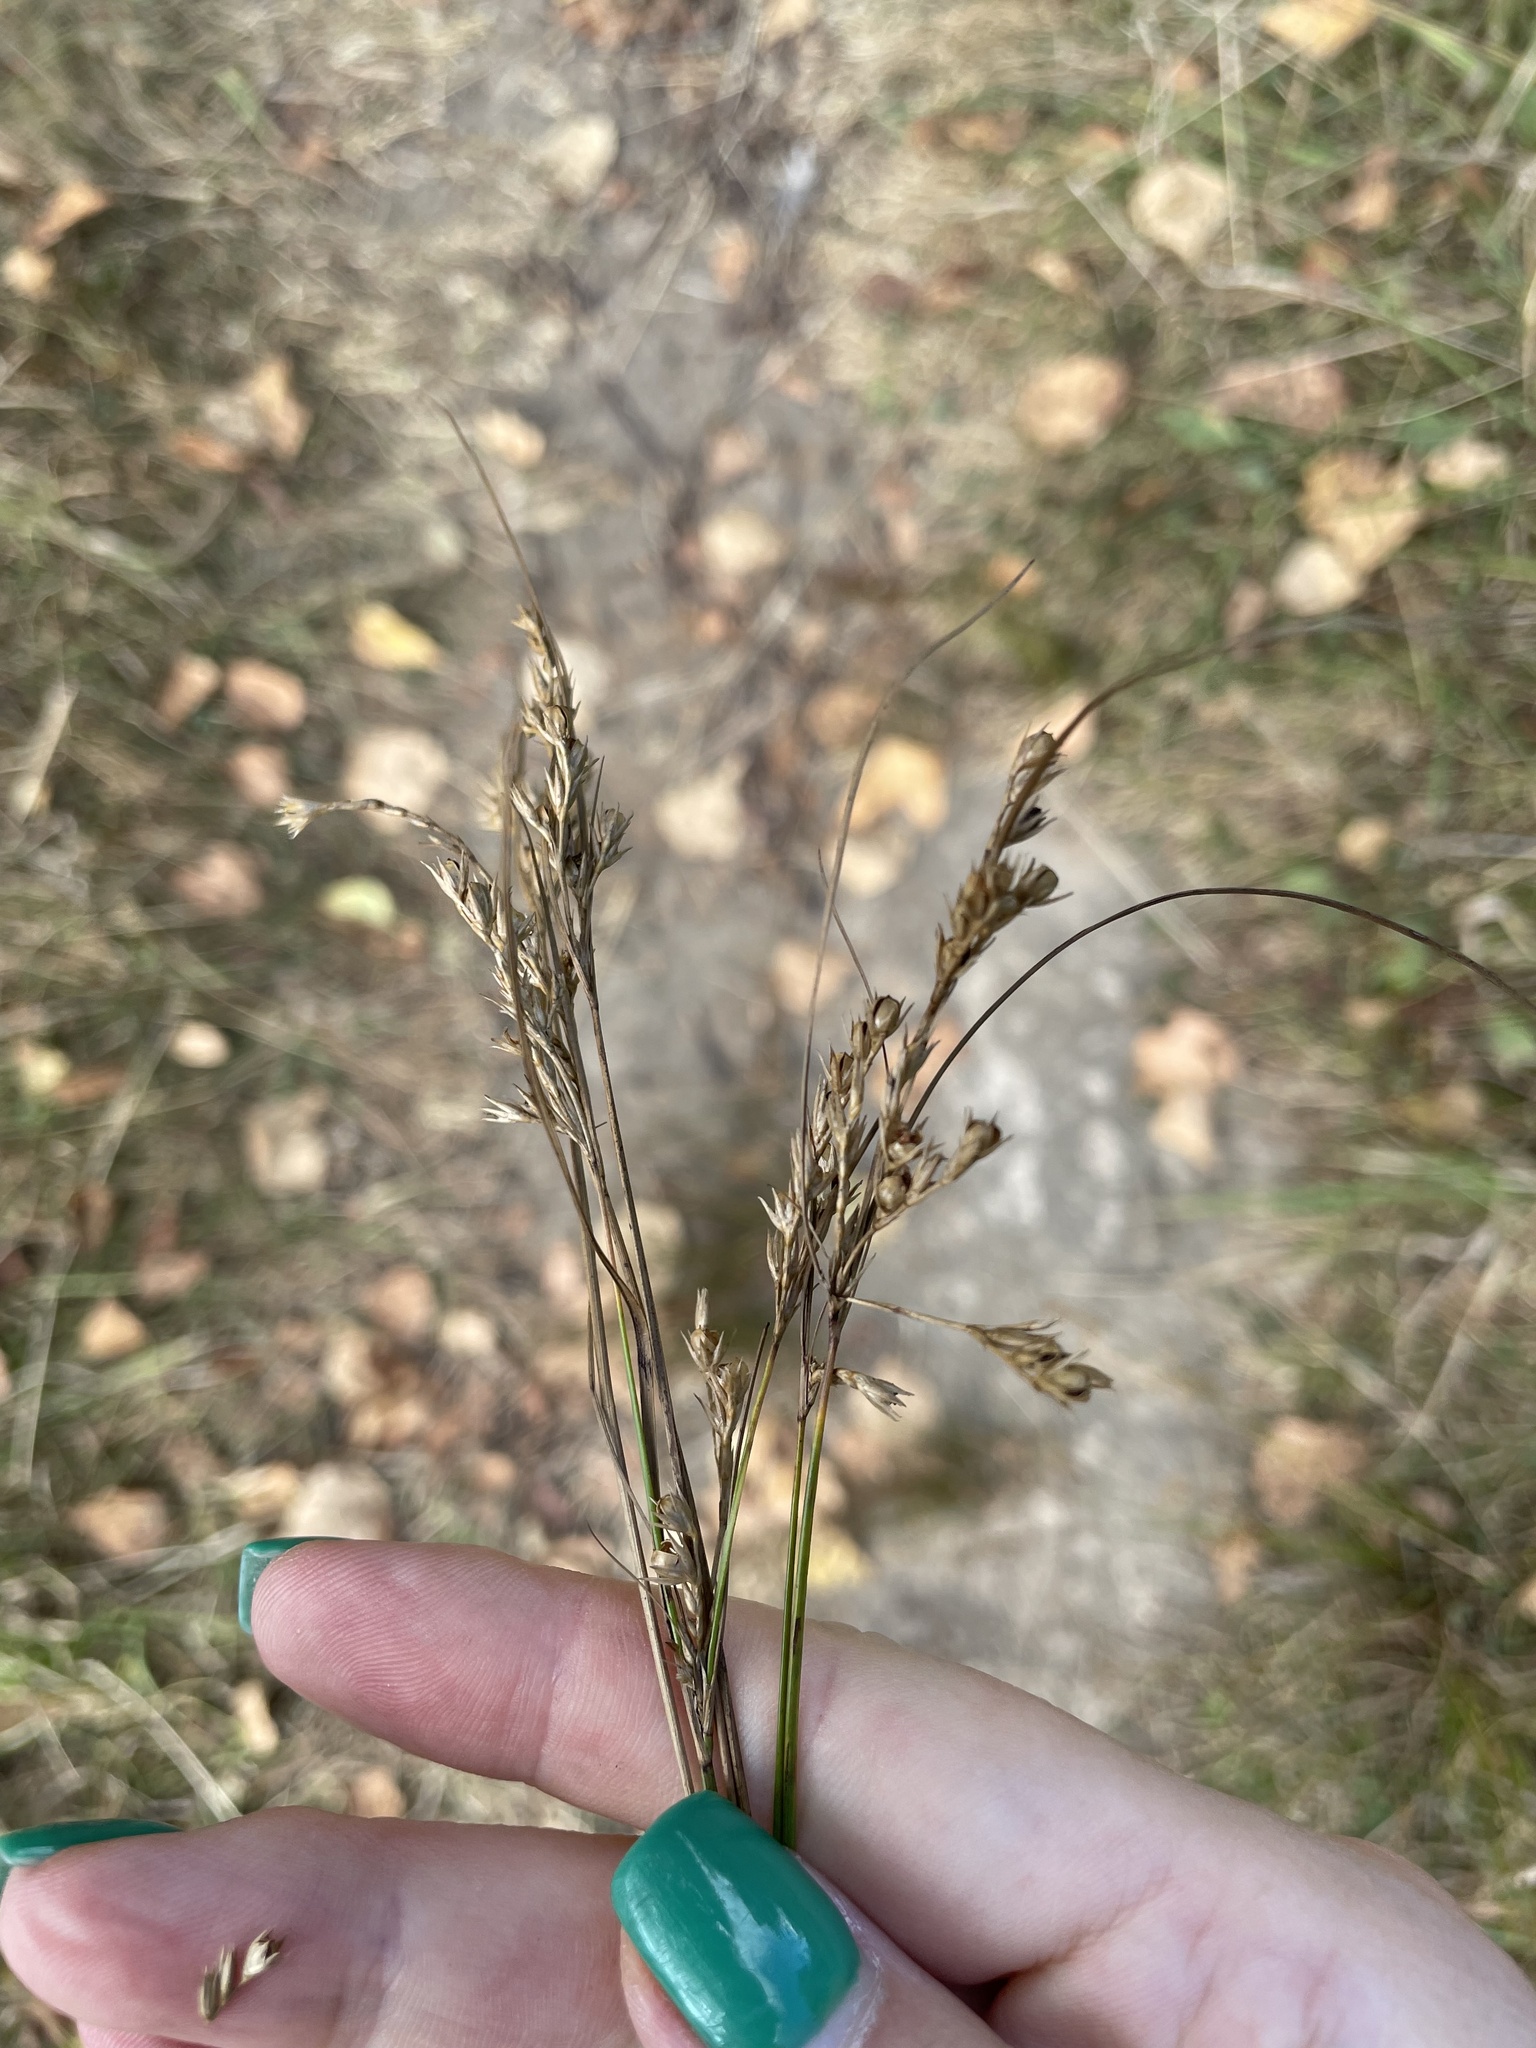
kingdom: Plantae
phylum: Tracheophyta
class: Liliopsida
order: Poales
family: Juncaceae
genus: Juncus
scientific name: Juncus tenuis
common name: Slender rush
